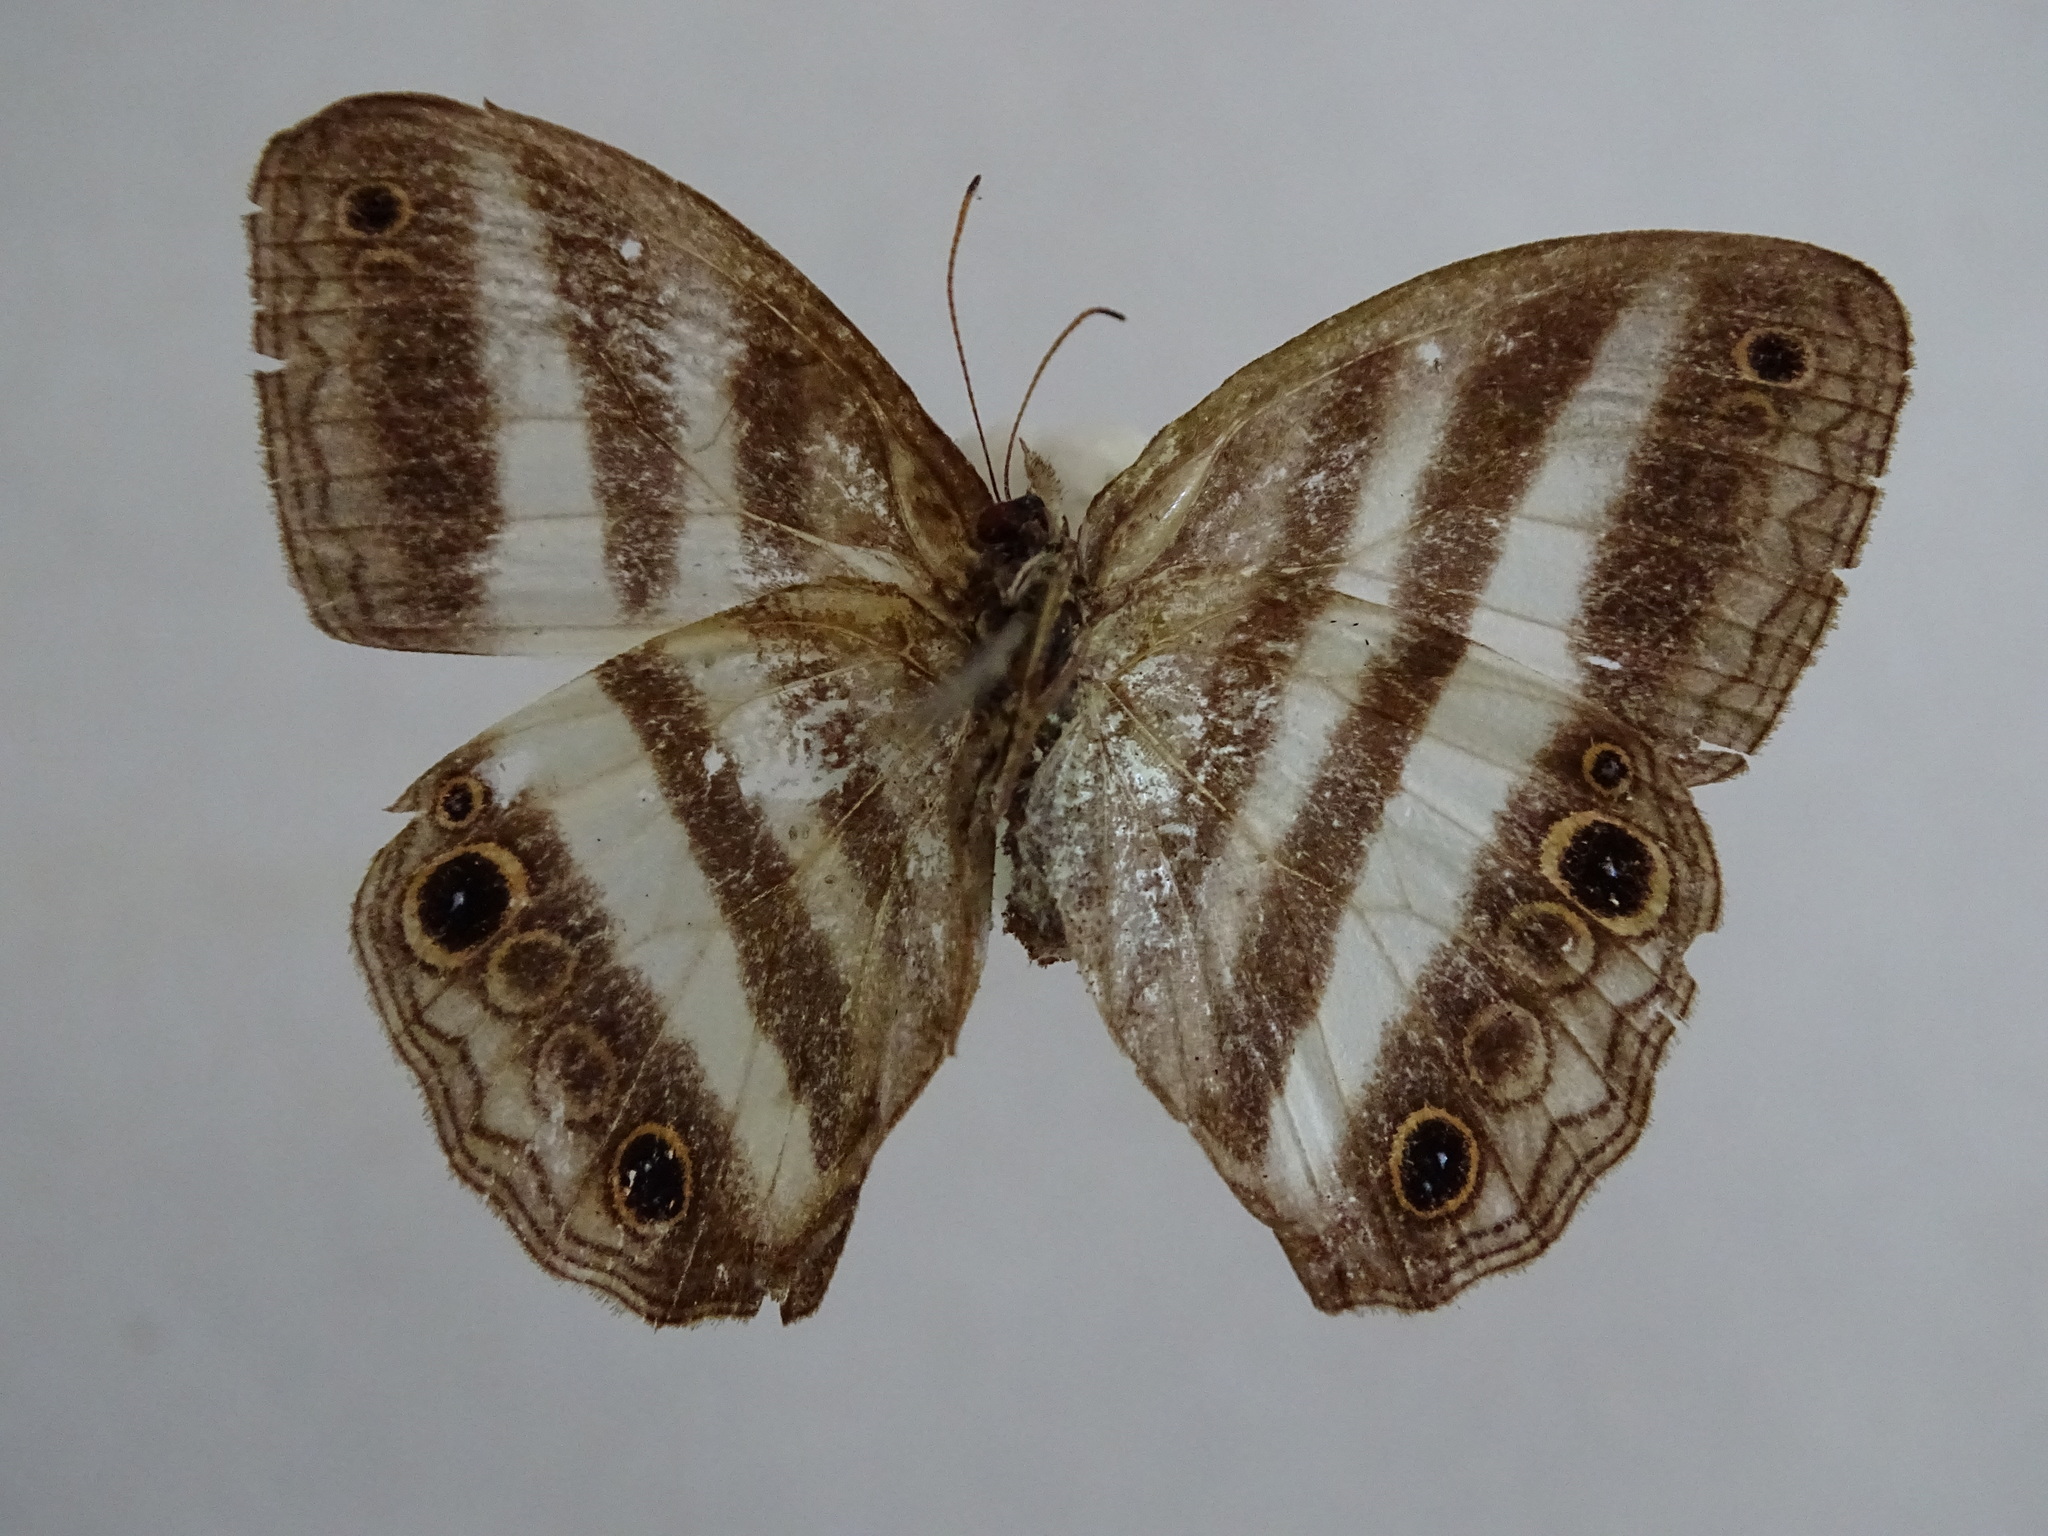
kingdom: Animalia
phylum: Arthropoda
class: Insecta
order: Lepidoptera
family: Nymphalidae
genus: Pareuptychia
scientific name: Pareuptychia hesione
